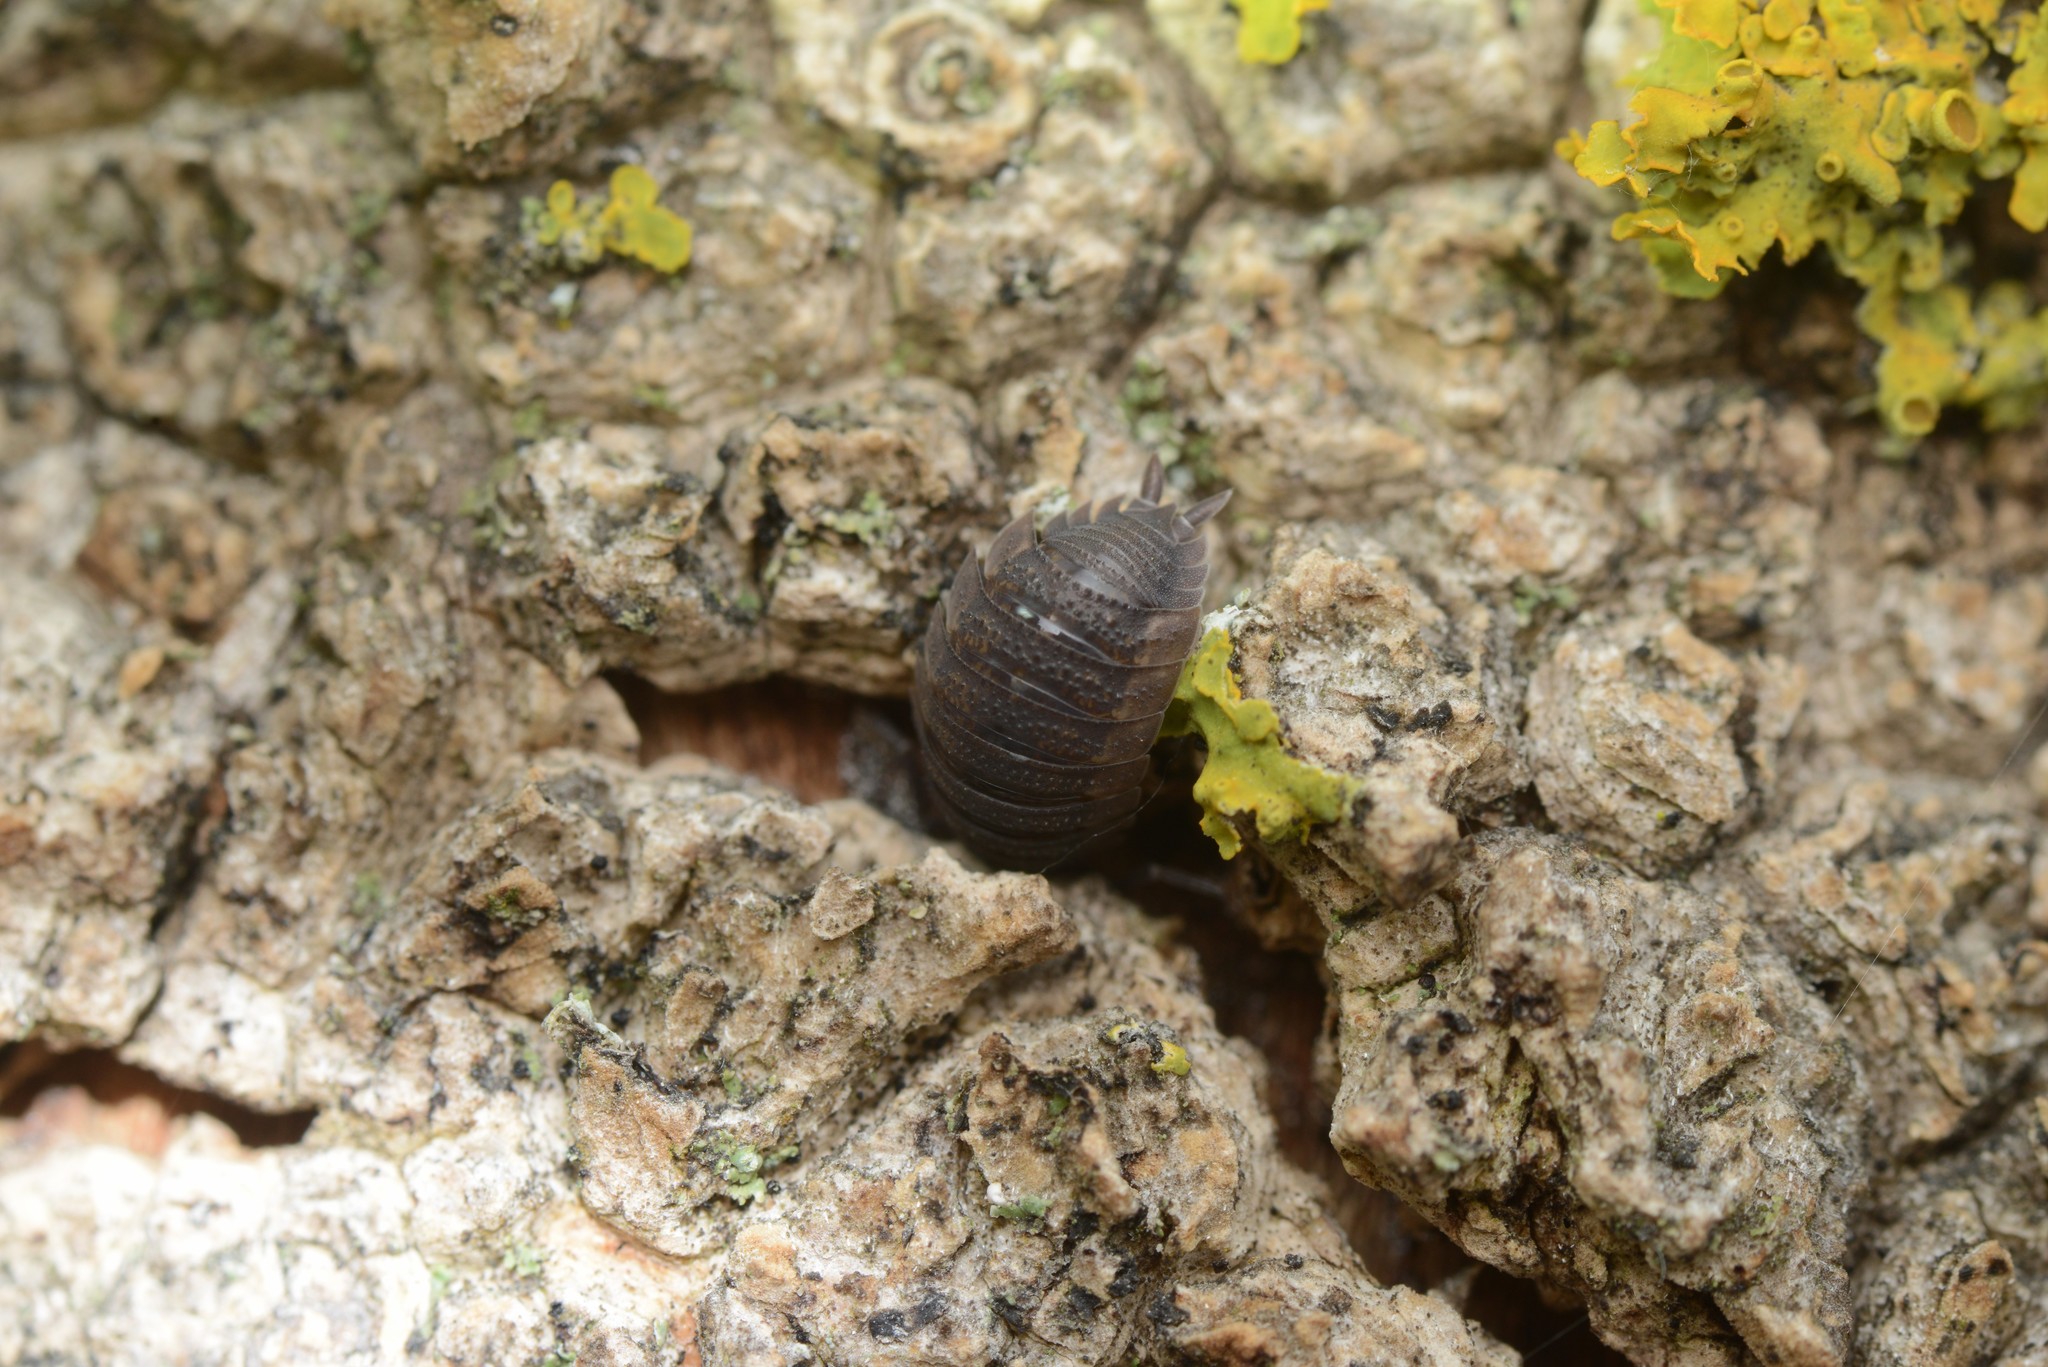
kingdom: Animalia
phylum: Arthropoda
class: Malacostraca
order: Isopoda
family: Porcellionidae
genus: Porcellio
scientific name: Porcellio scaber
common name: Common rough woodlouse
